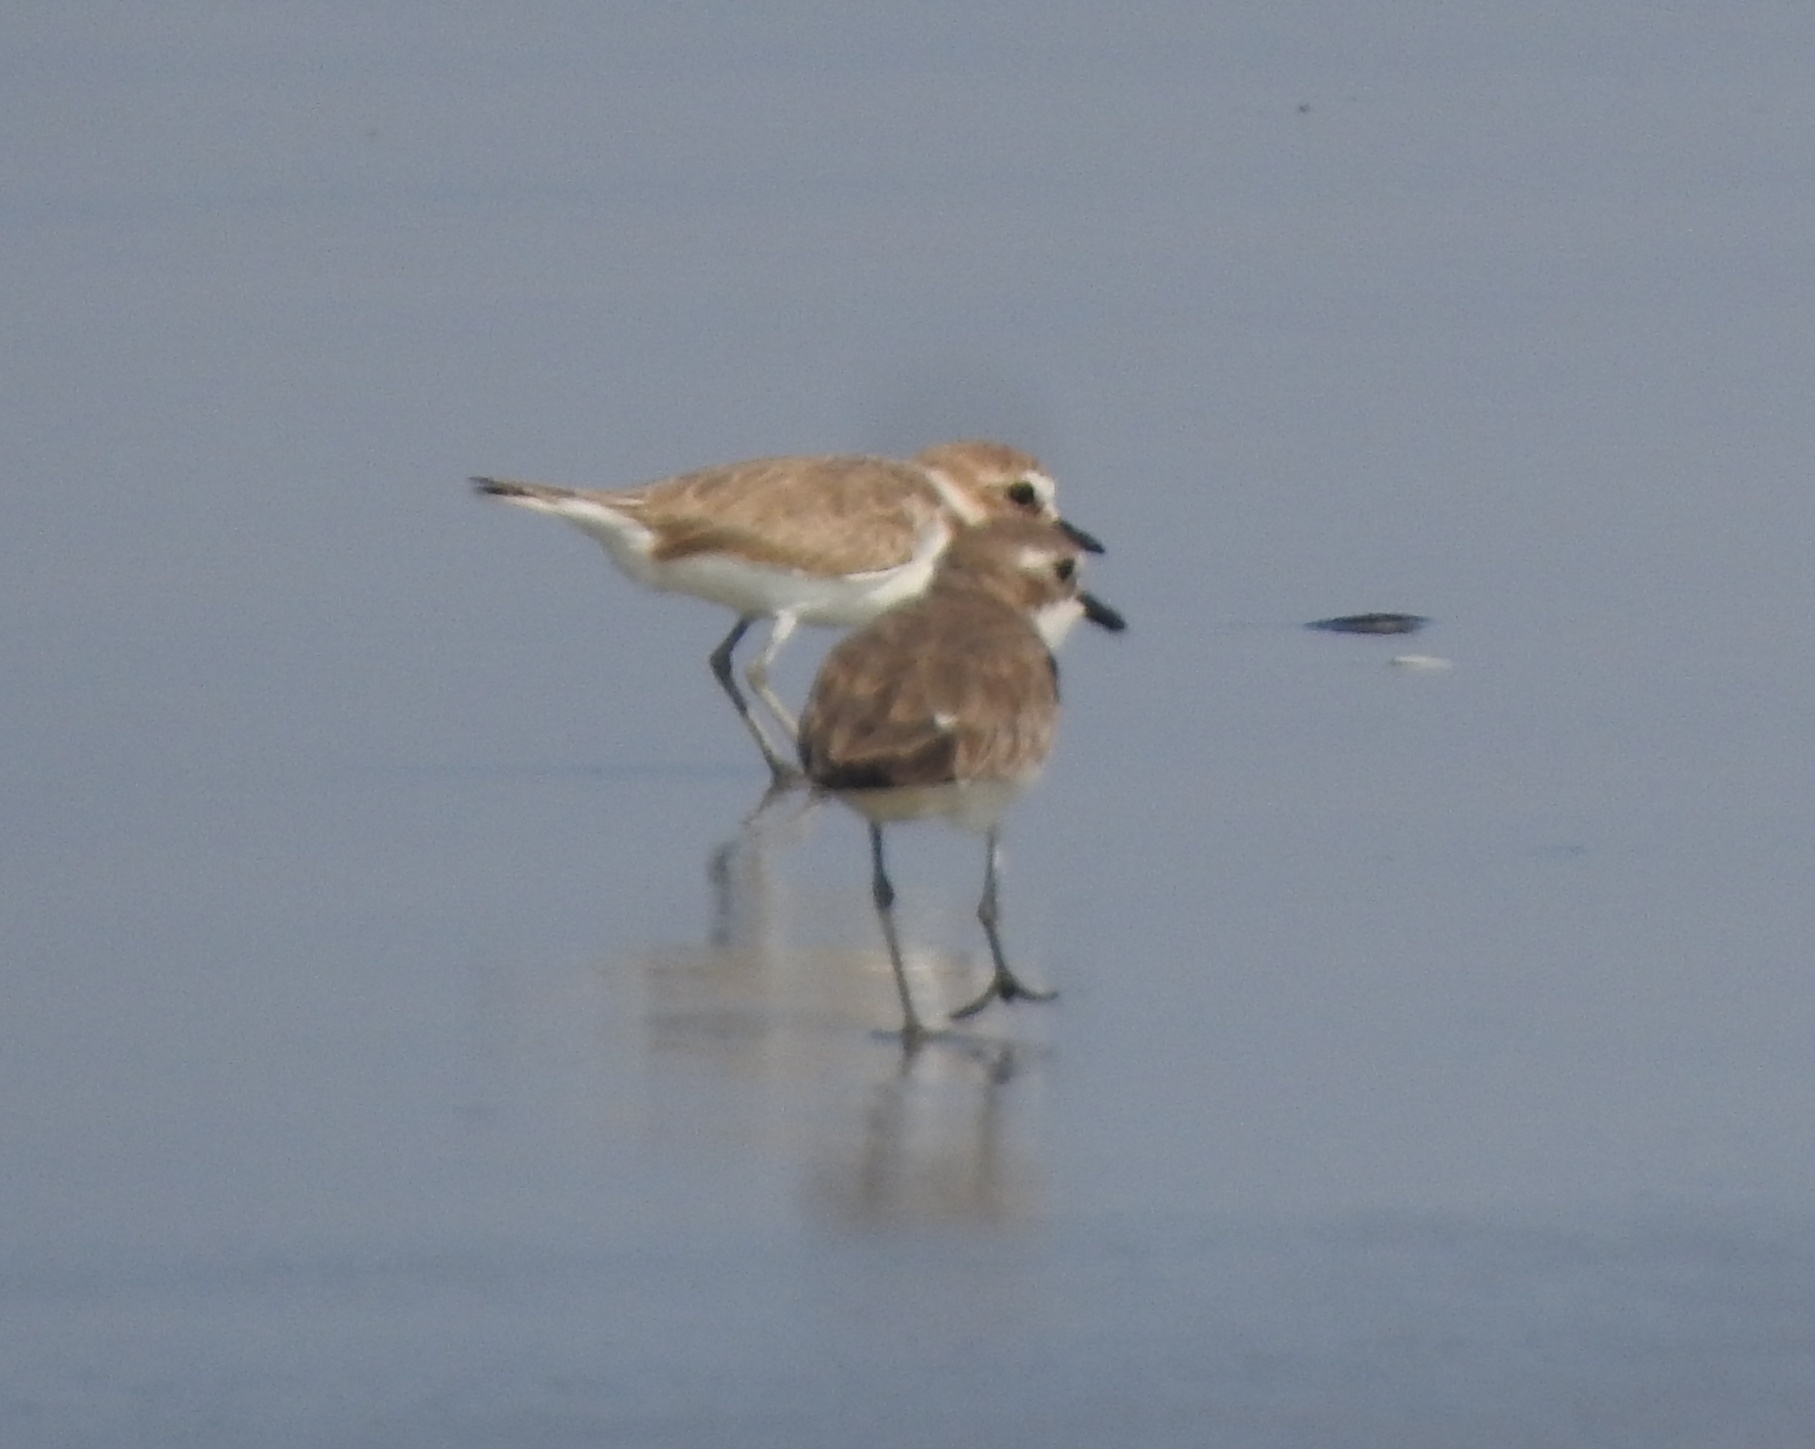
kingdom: Animalia
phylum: Chordata
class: Aves
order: Charadriiformes
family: Charadriidae
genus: Charadrius
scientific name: Charadrius alexandrinus
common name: Kentish plover
